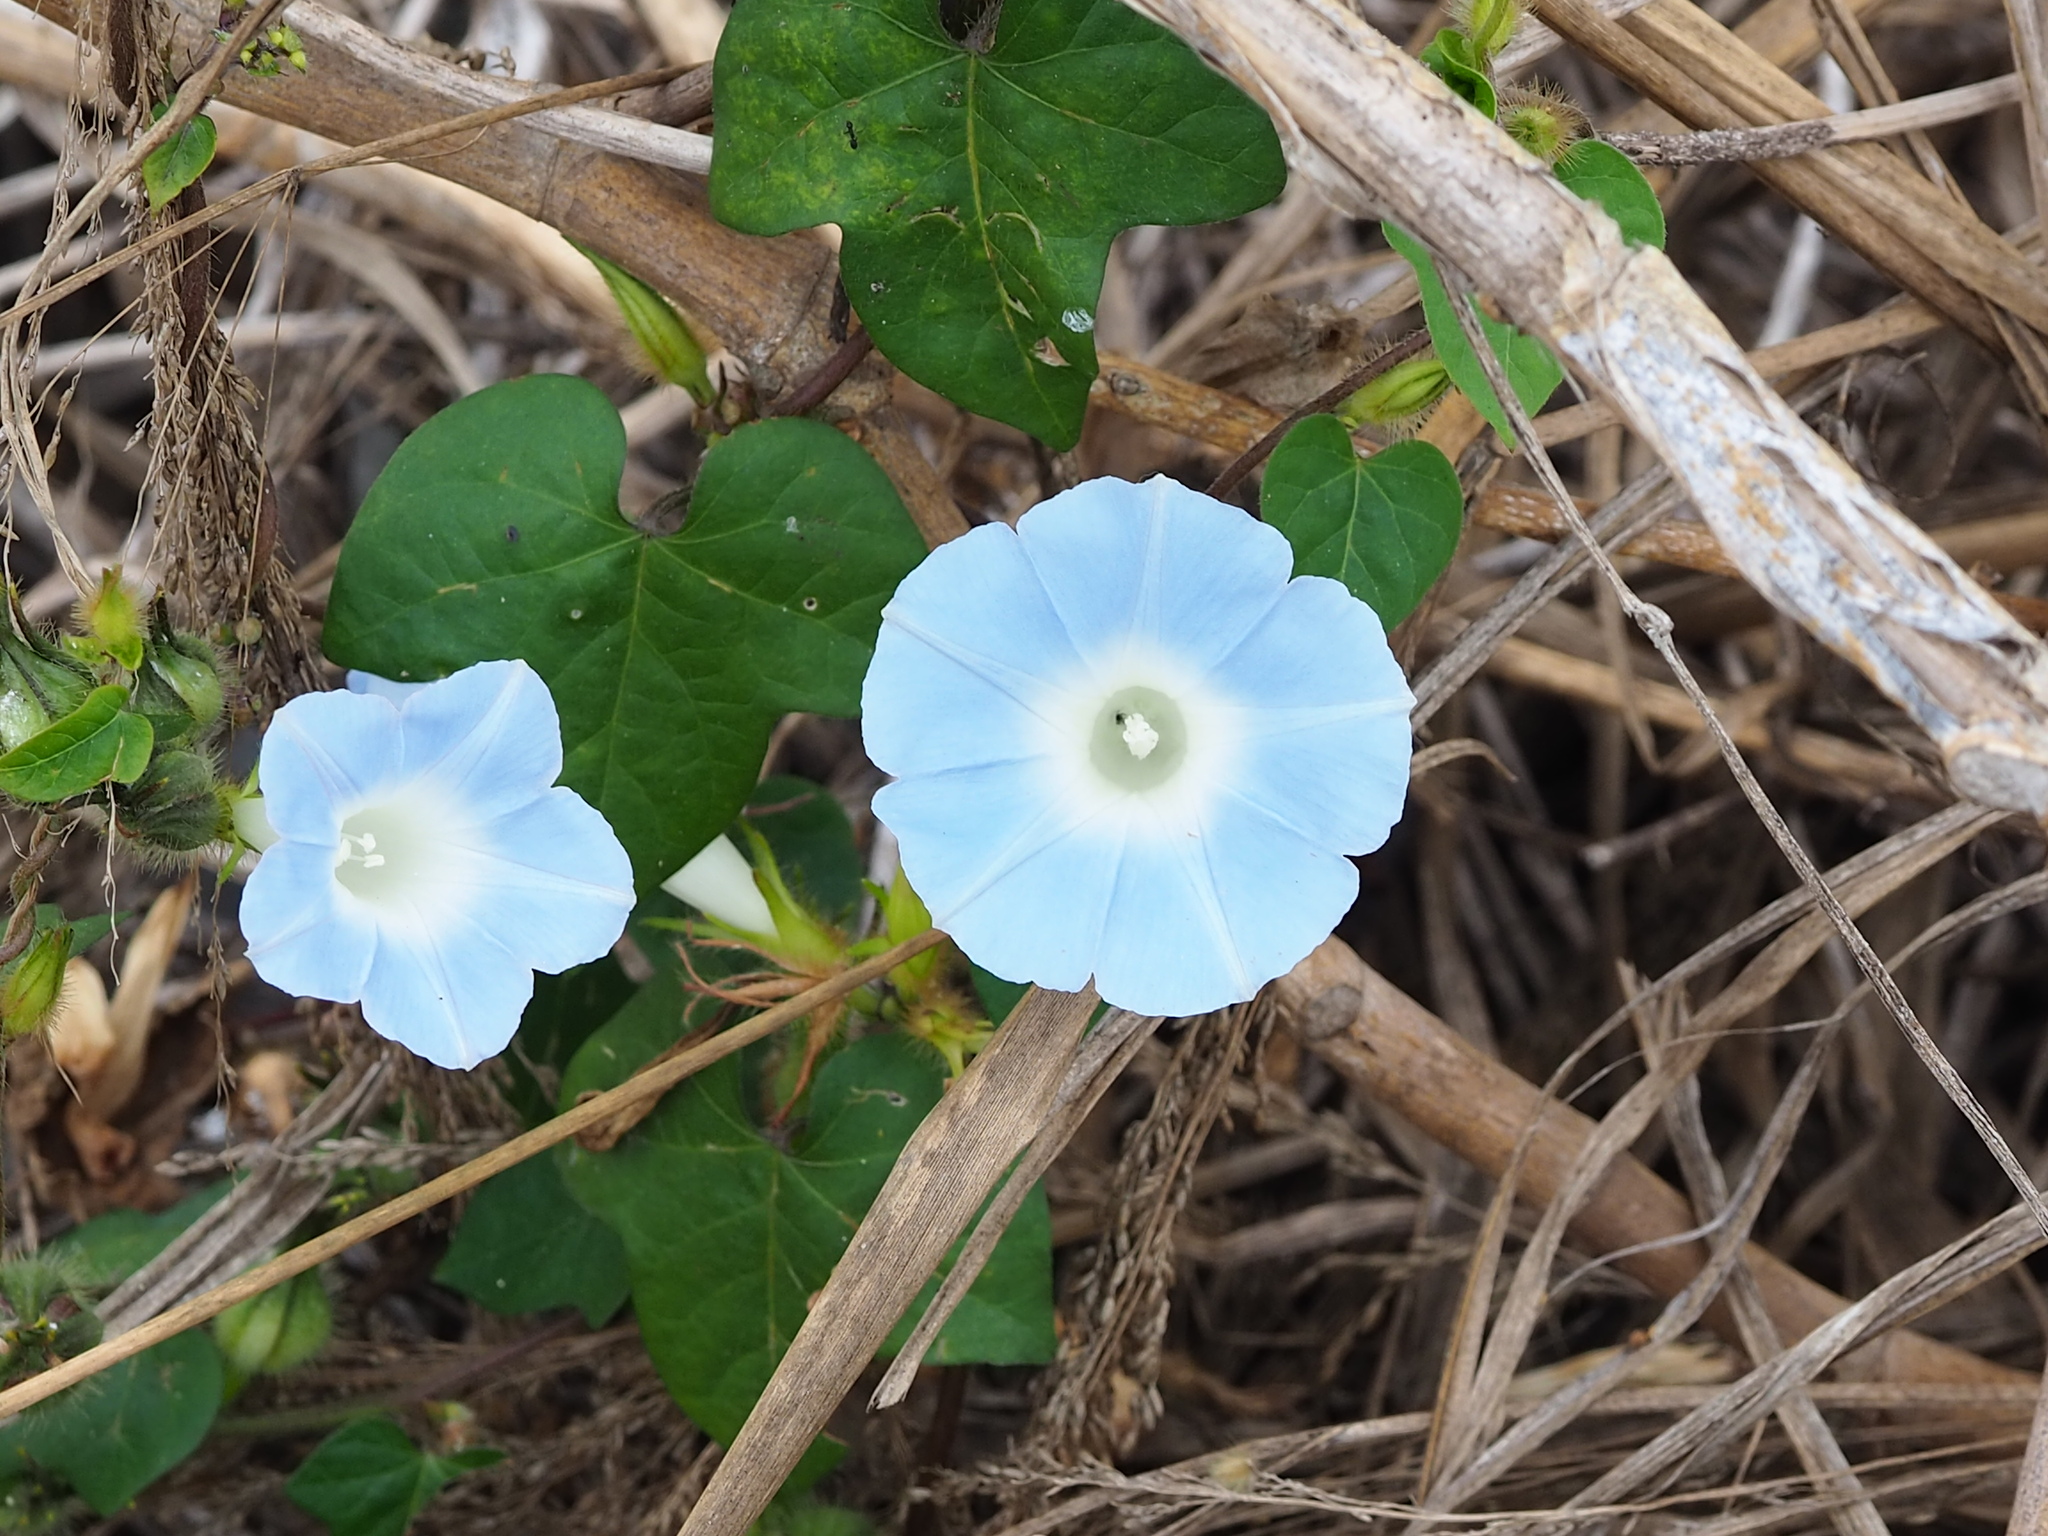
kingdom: Plantae
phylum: Tracheophyta
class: Magnoliopsida
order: Solanales
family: Convolvulaceae
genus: Ipomoea
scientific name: Ipomoea nil
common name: Japanese morning-glory
